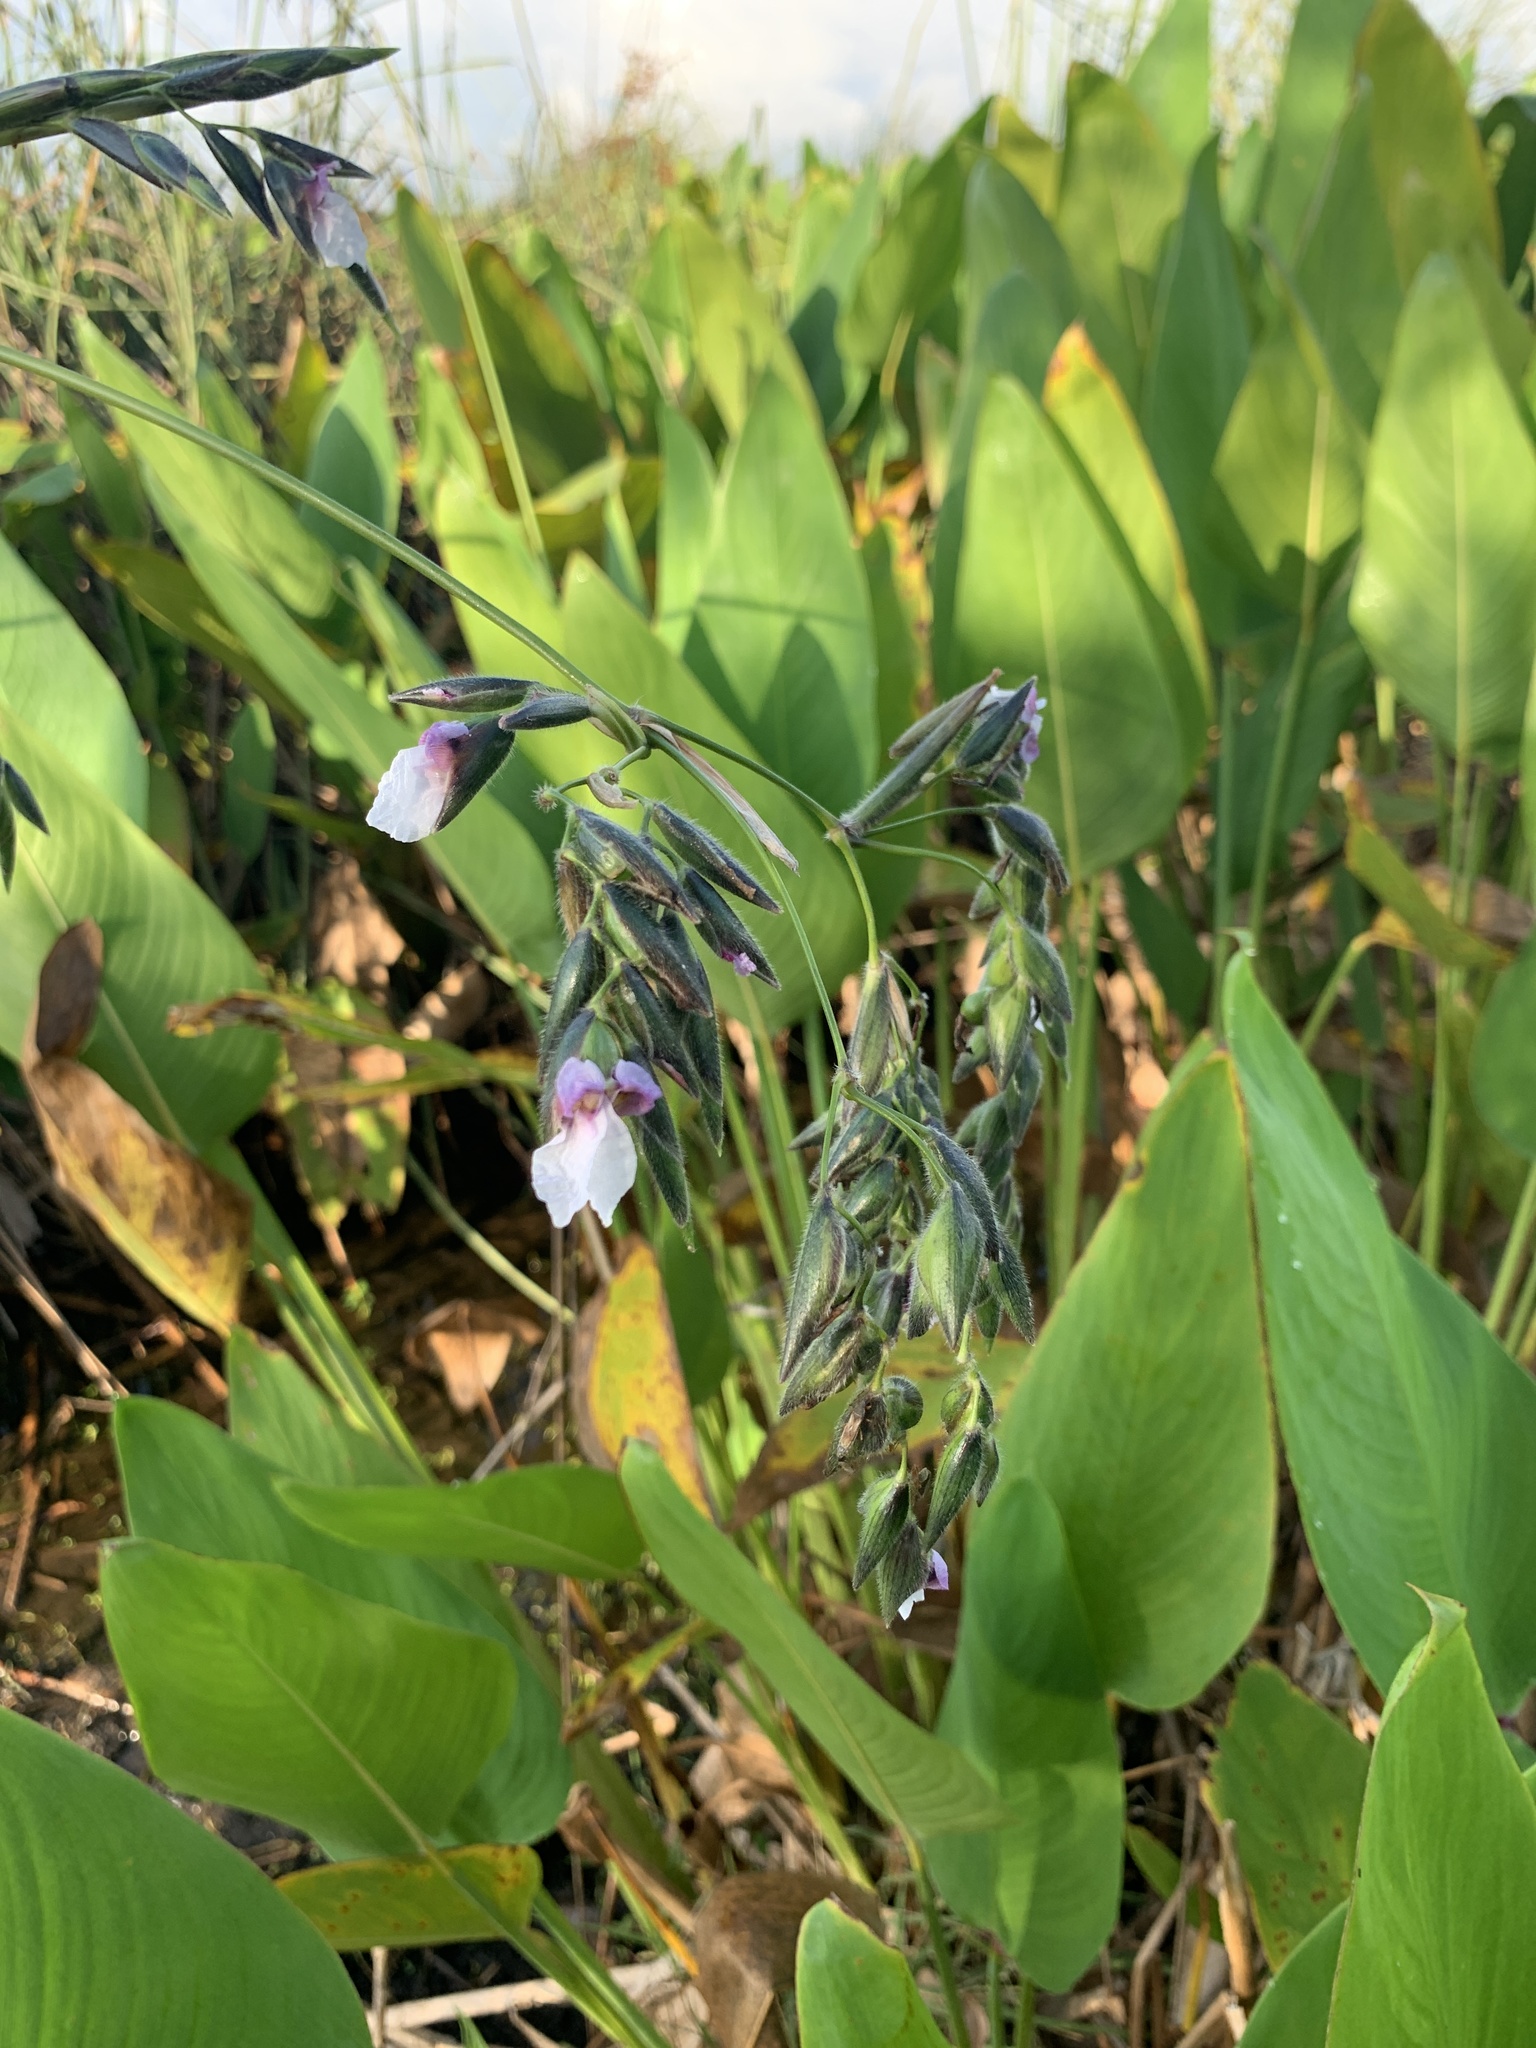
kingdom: Plantae
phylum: Tracheophyta
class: Liliopsida
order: Zingiberales
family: Marantaceae
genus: Thalia
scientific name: Thalia geniculata
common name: Arrowroot
